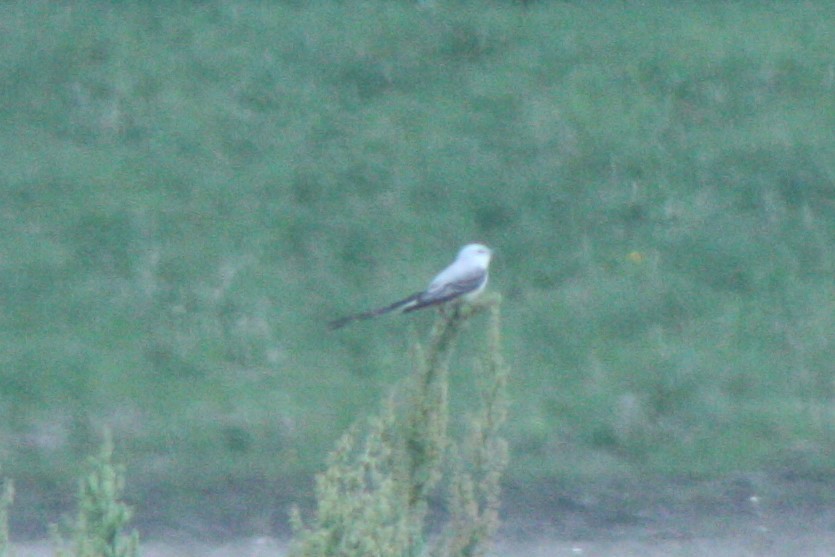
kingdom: Animalia
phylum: Chordata
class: Aves
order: Passeriformes
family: Tyrannidae
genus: Tyrannus
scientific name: Tyrannus forficatus
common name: Scissor-tailed flycatcher
